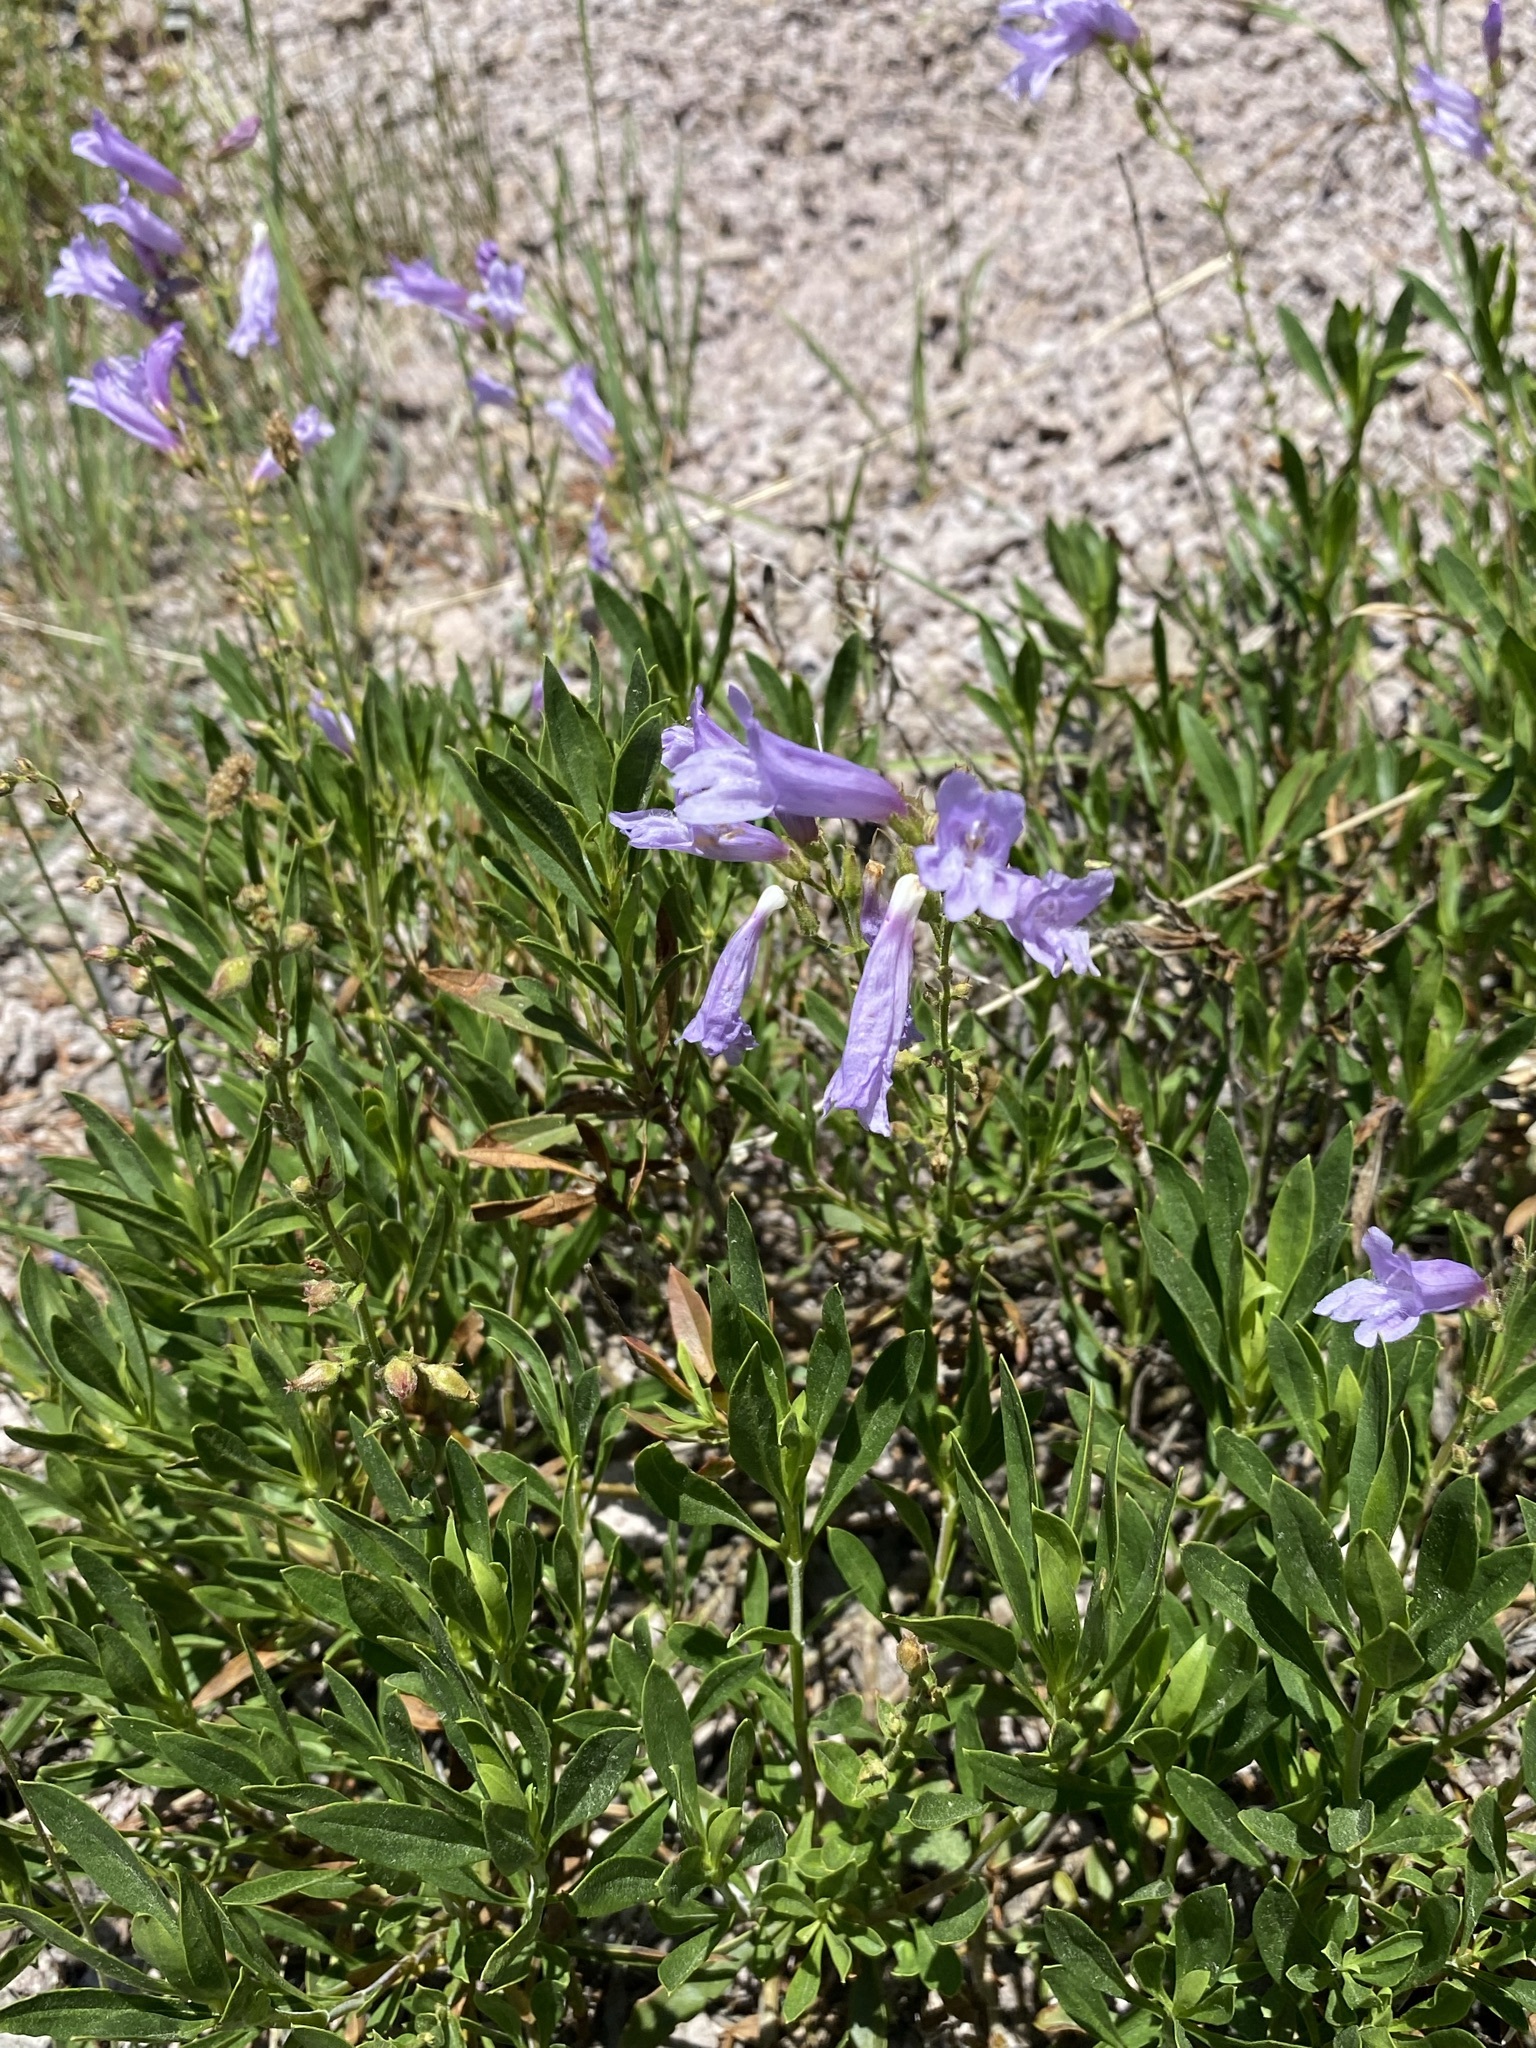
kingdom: Plantae
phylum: Tracheophyta
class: Magnoliopsida
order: Lamiales
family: Plantaginaceae
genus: Penstemon
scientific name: Penstemon fruticosus
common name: Bush penstemon
